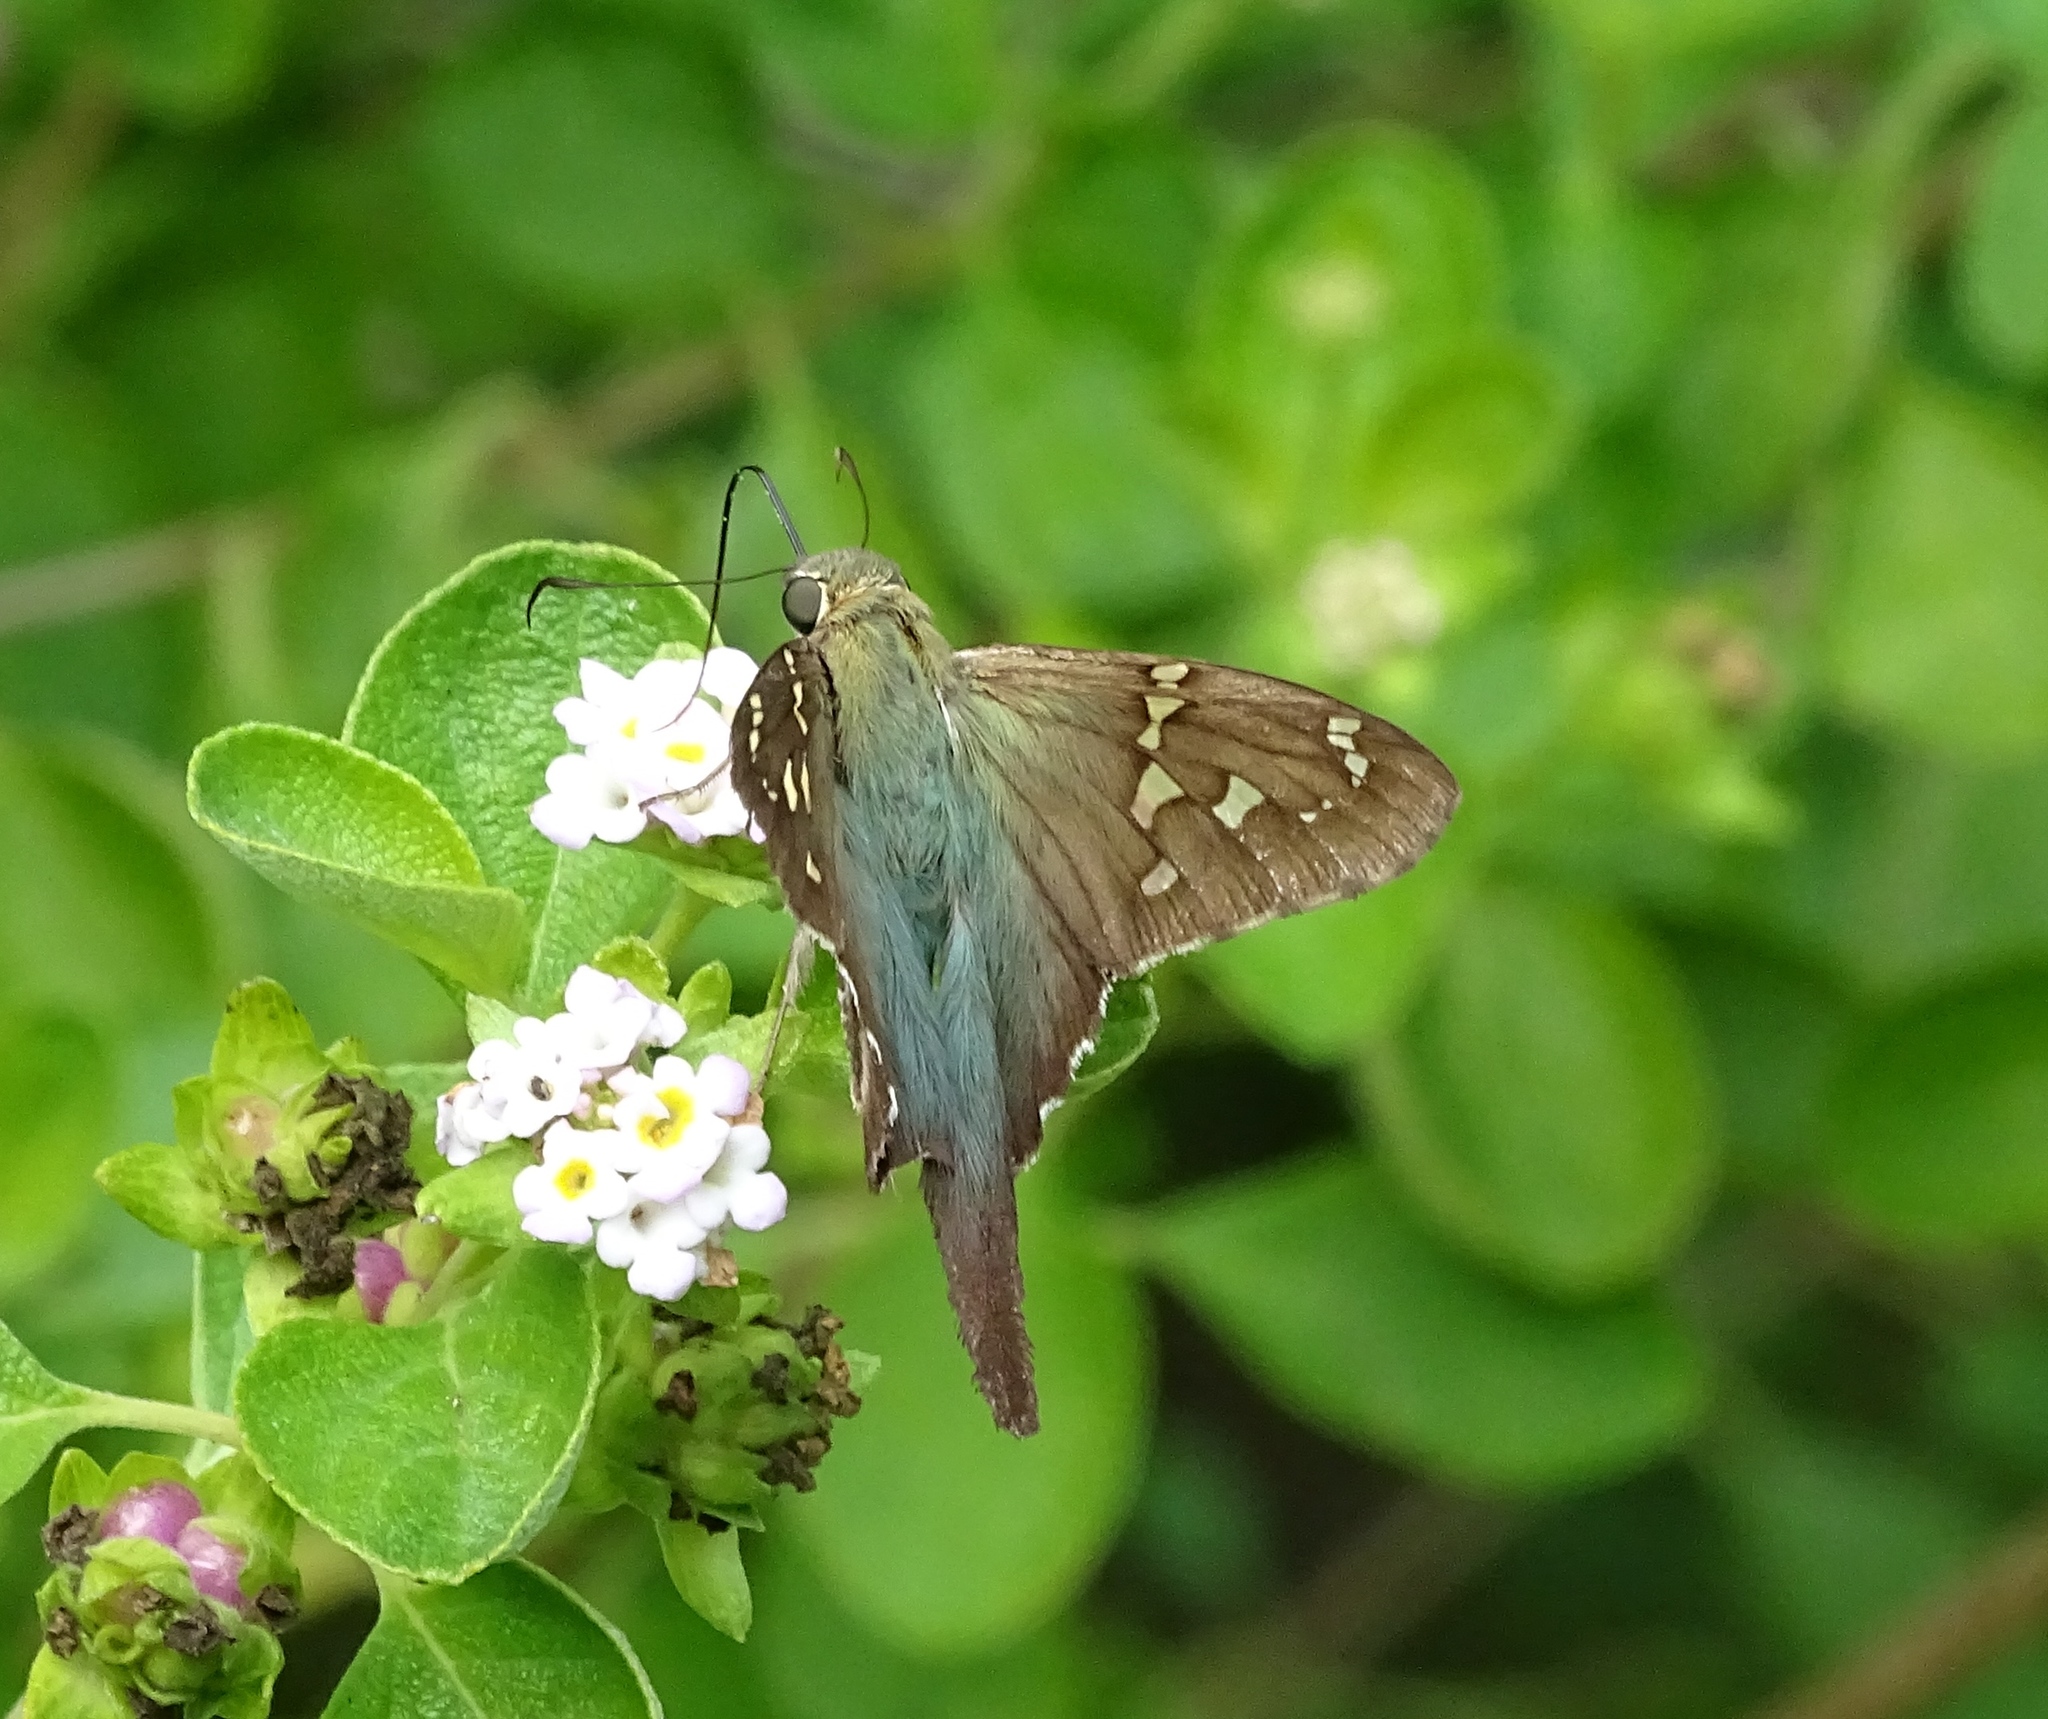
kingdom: Animalia
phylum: Arthropoda
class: Insecta
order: Lepidoptera
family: Hesperiidae
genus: Urbanus
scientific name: Urbanus proteus
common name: Long-tailed skipper
